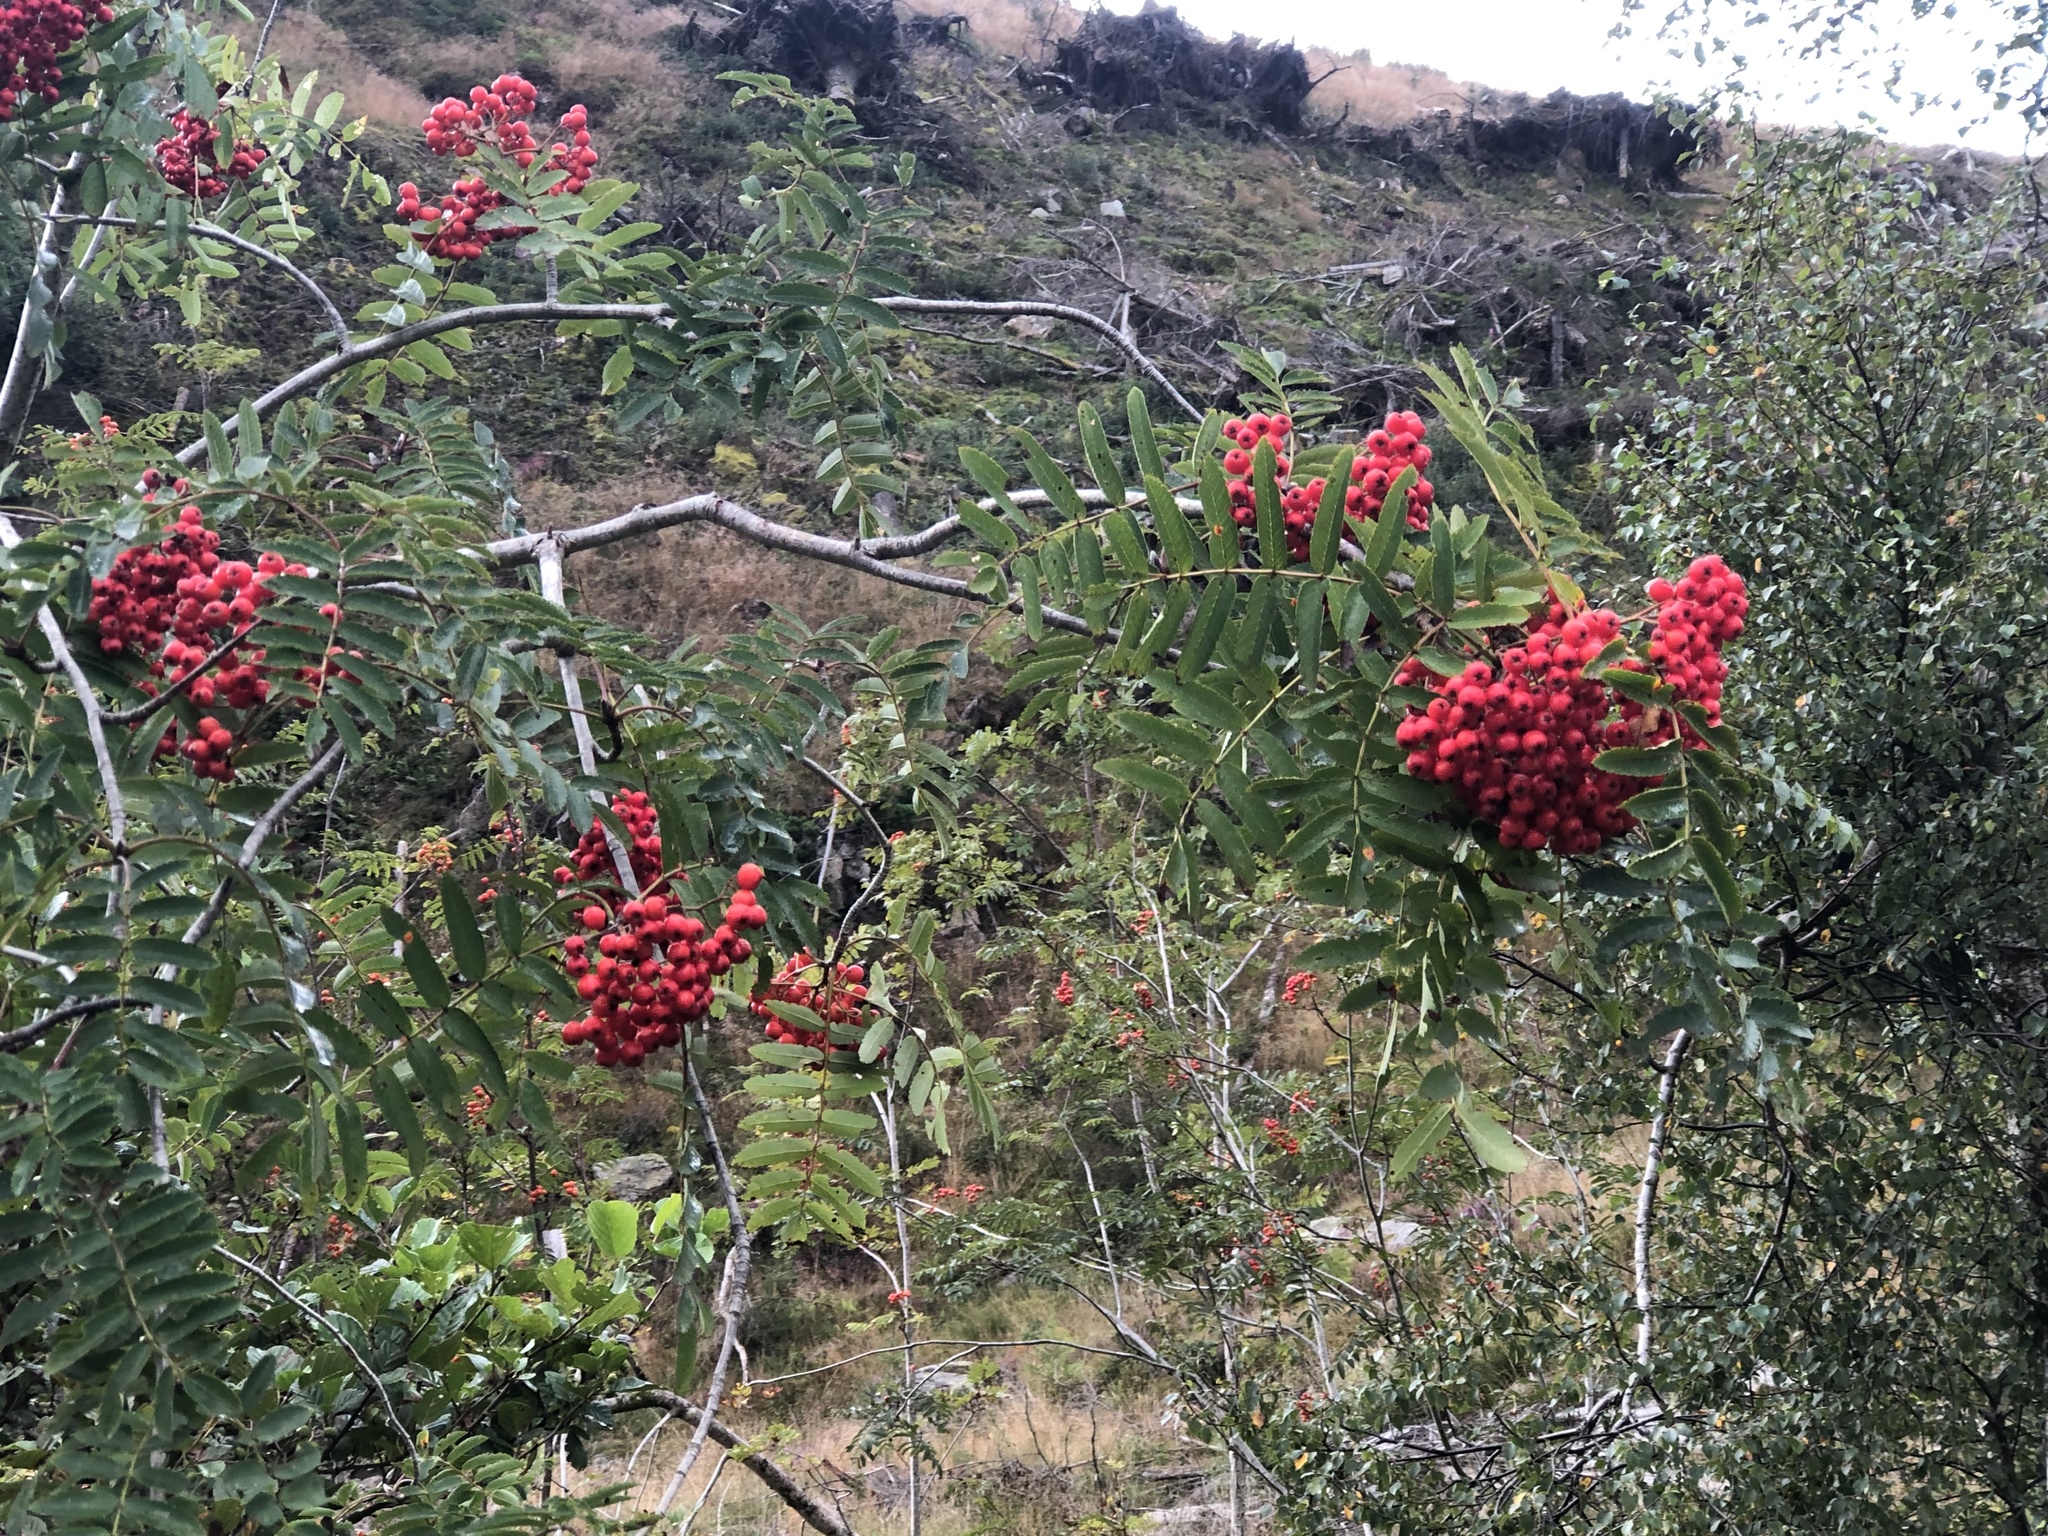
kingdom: Plantae
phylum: Tracheophyta
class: Magnoliopsida
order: Rosales
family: Rosaceae
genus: Sorbus
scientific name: Sorbus aucuparia
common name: Rowan
